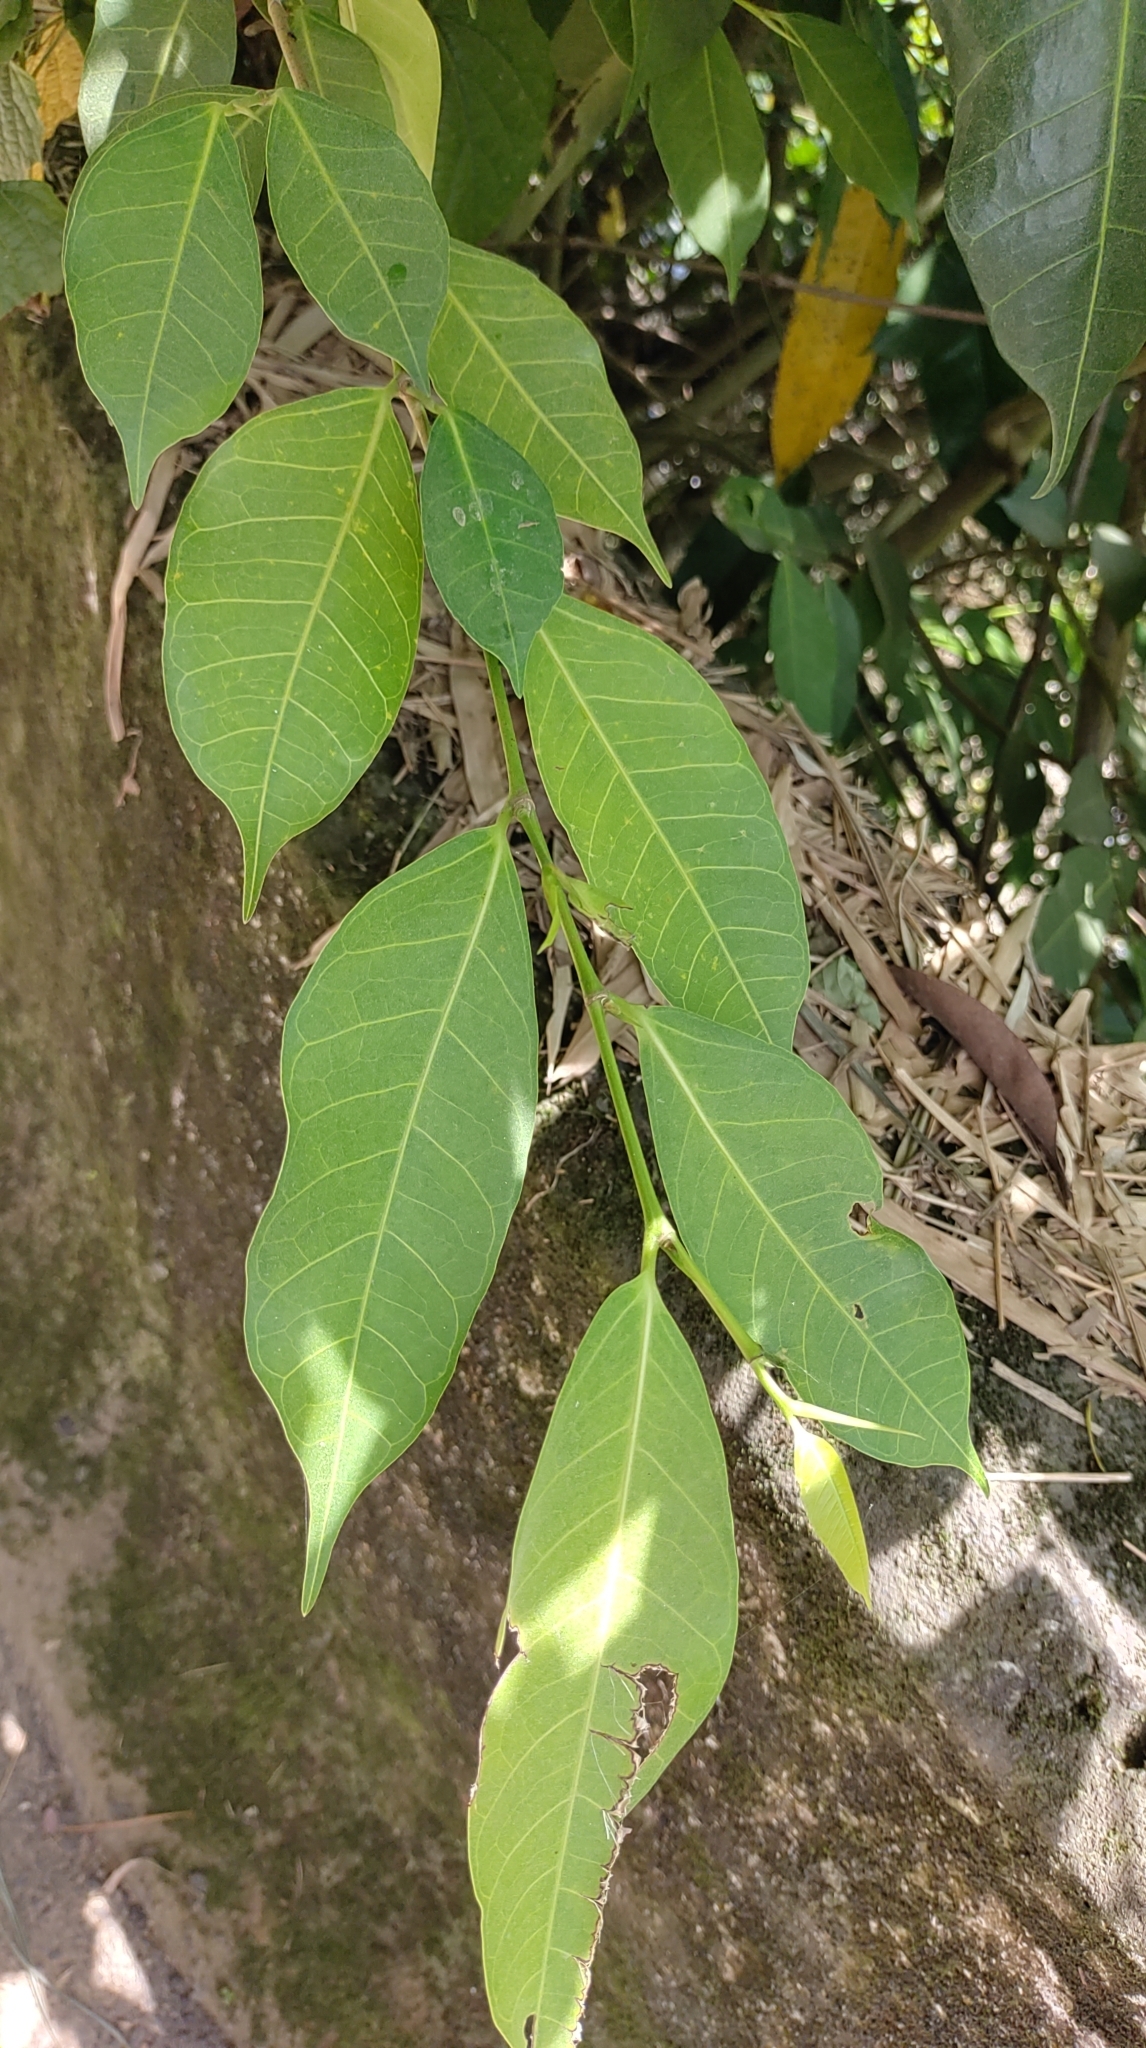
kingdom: Plantae
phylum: Tracheophyta
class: Magnoliopsida
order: Rosales
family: Moraceae
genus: Ficus
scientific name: Ficus virgata
